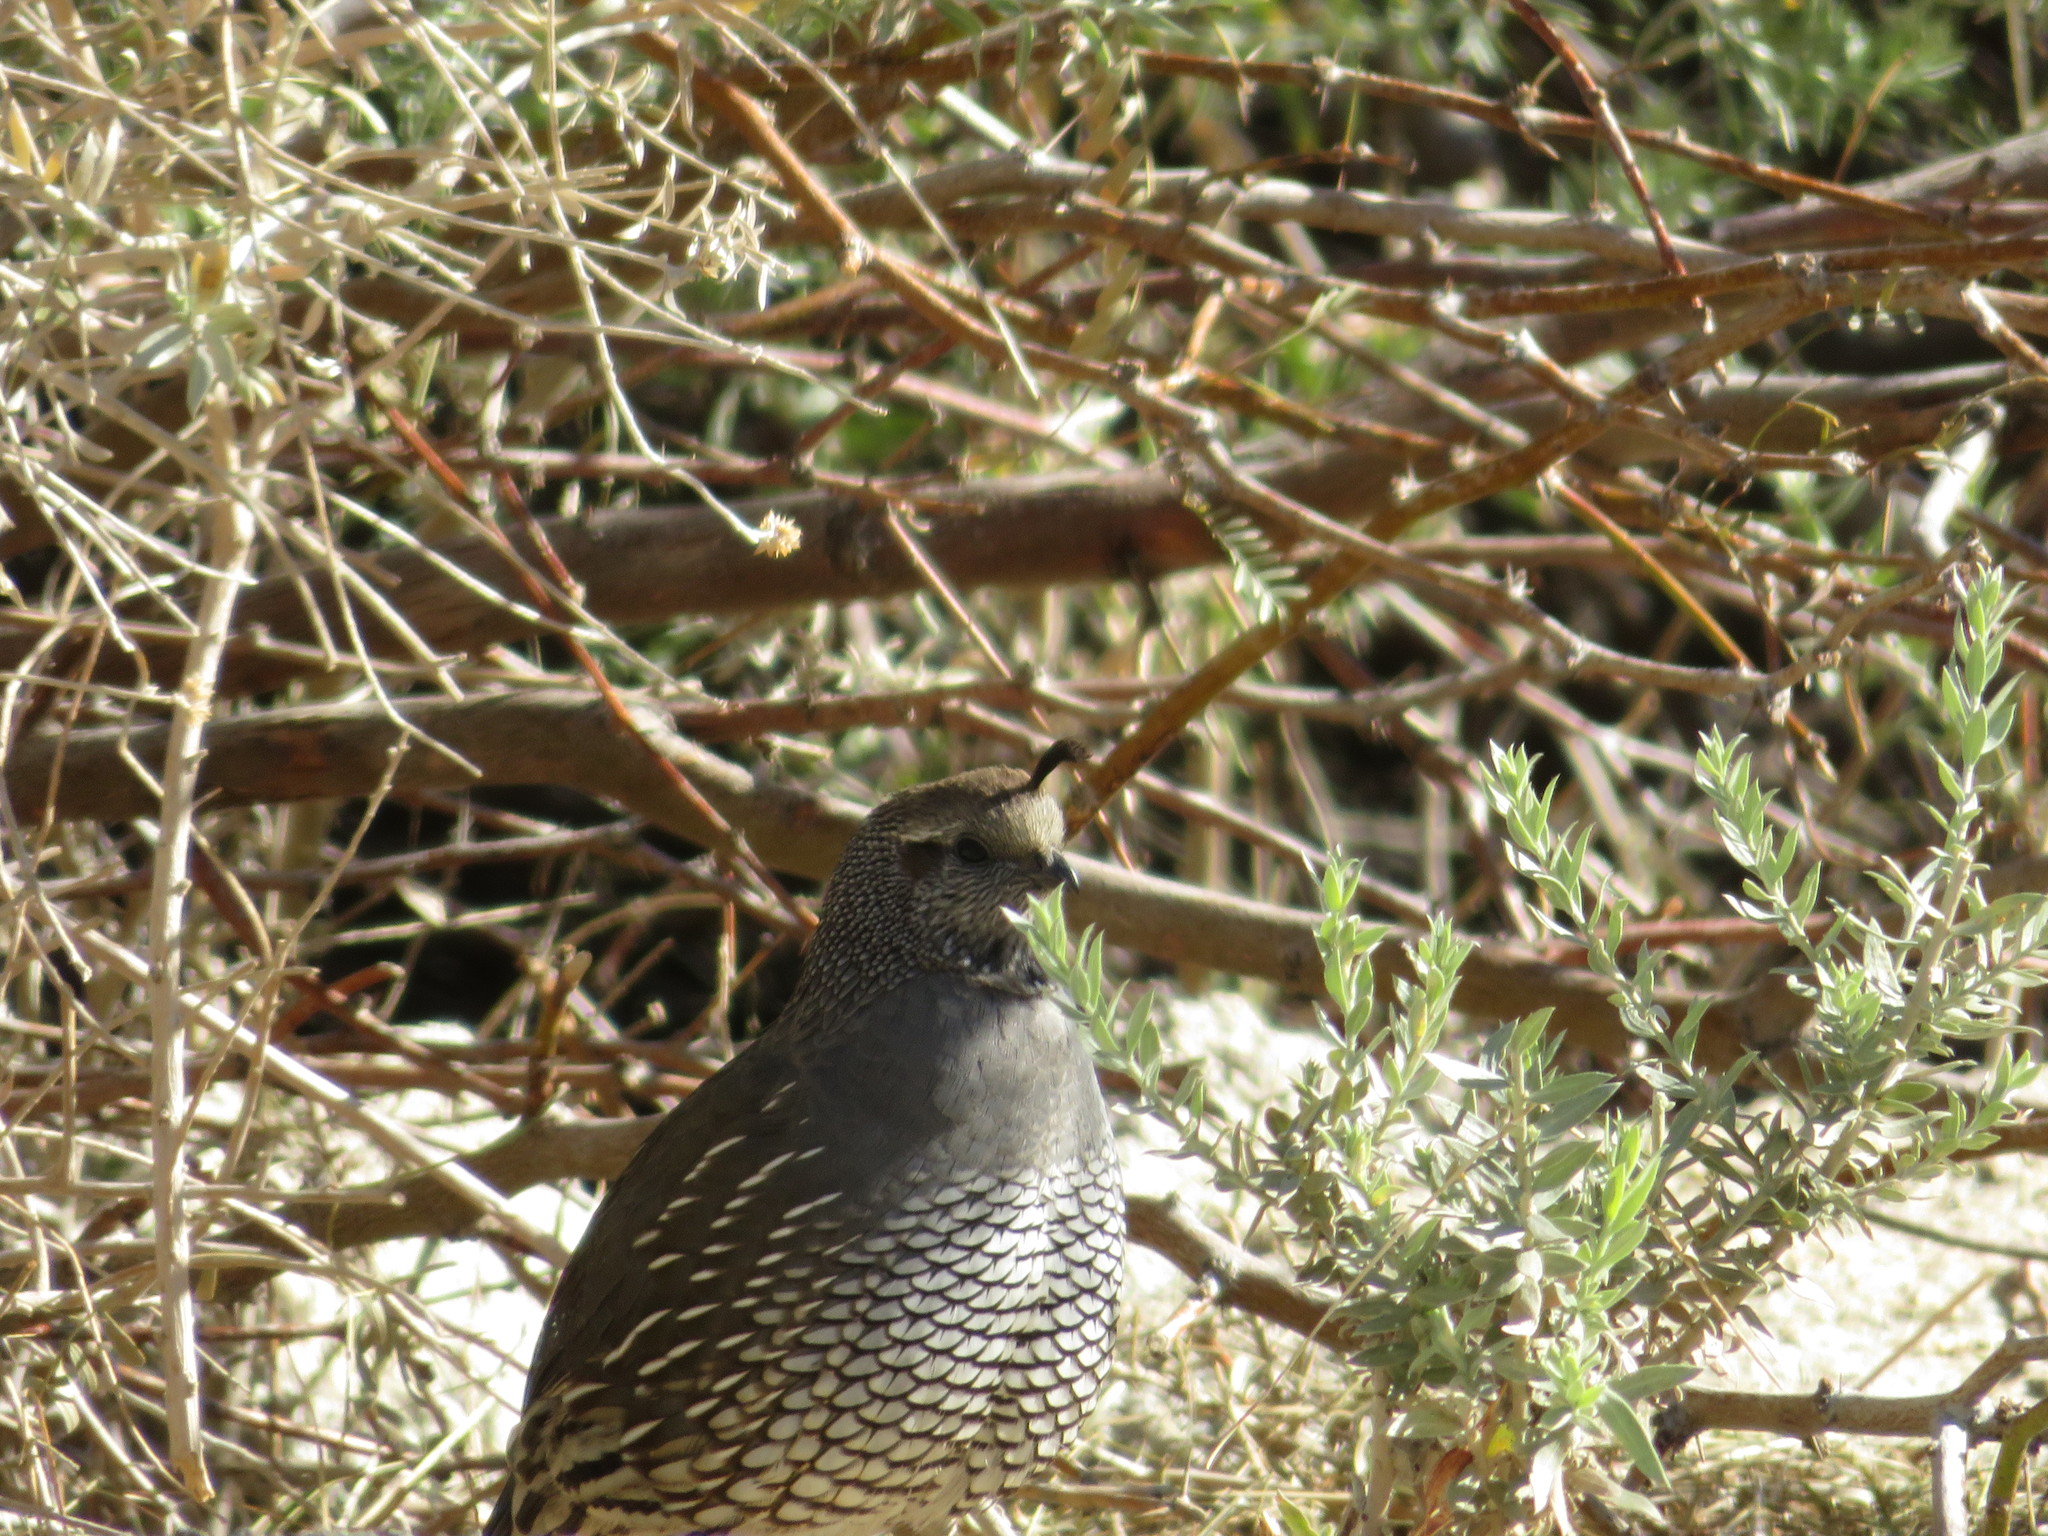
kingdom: Animalia
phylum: Chordata
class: Aves
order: Galliformes
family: Odontophoridae
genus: Callipepla
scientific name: Callipepla californica
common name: California quail
